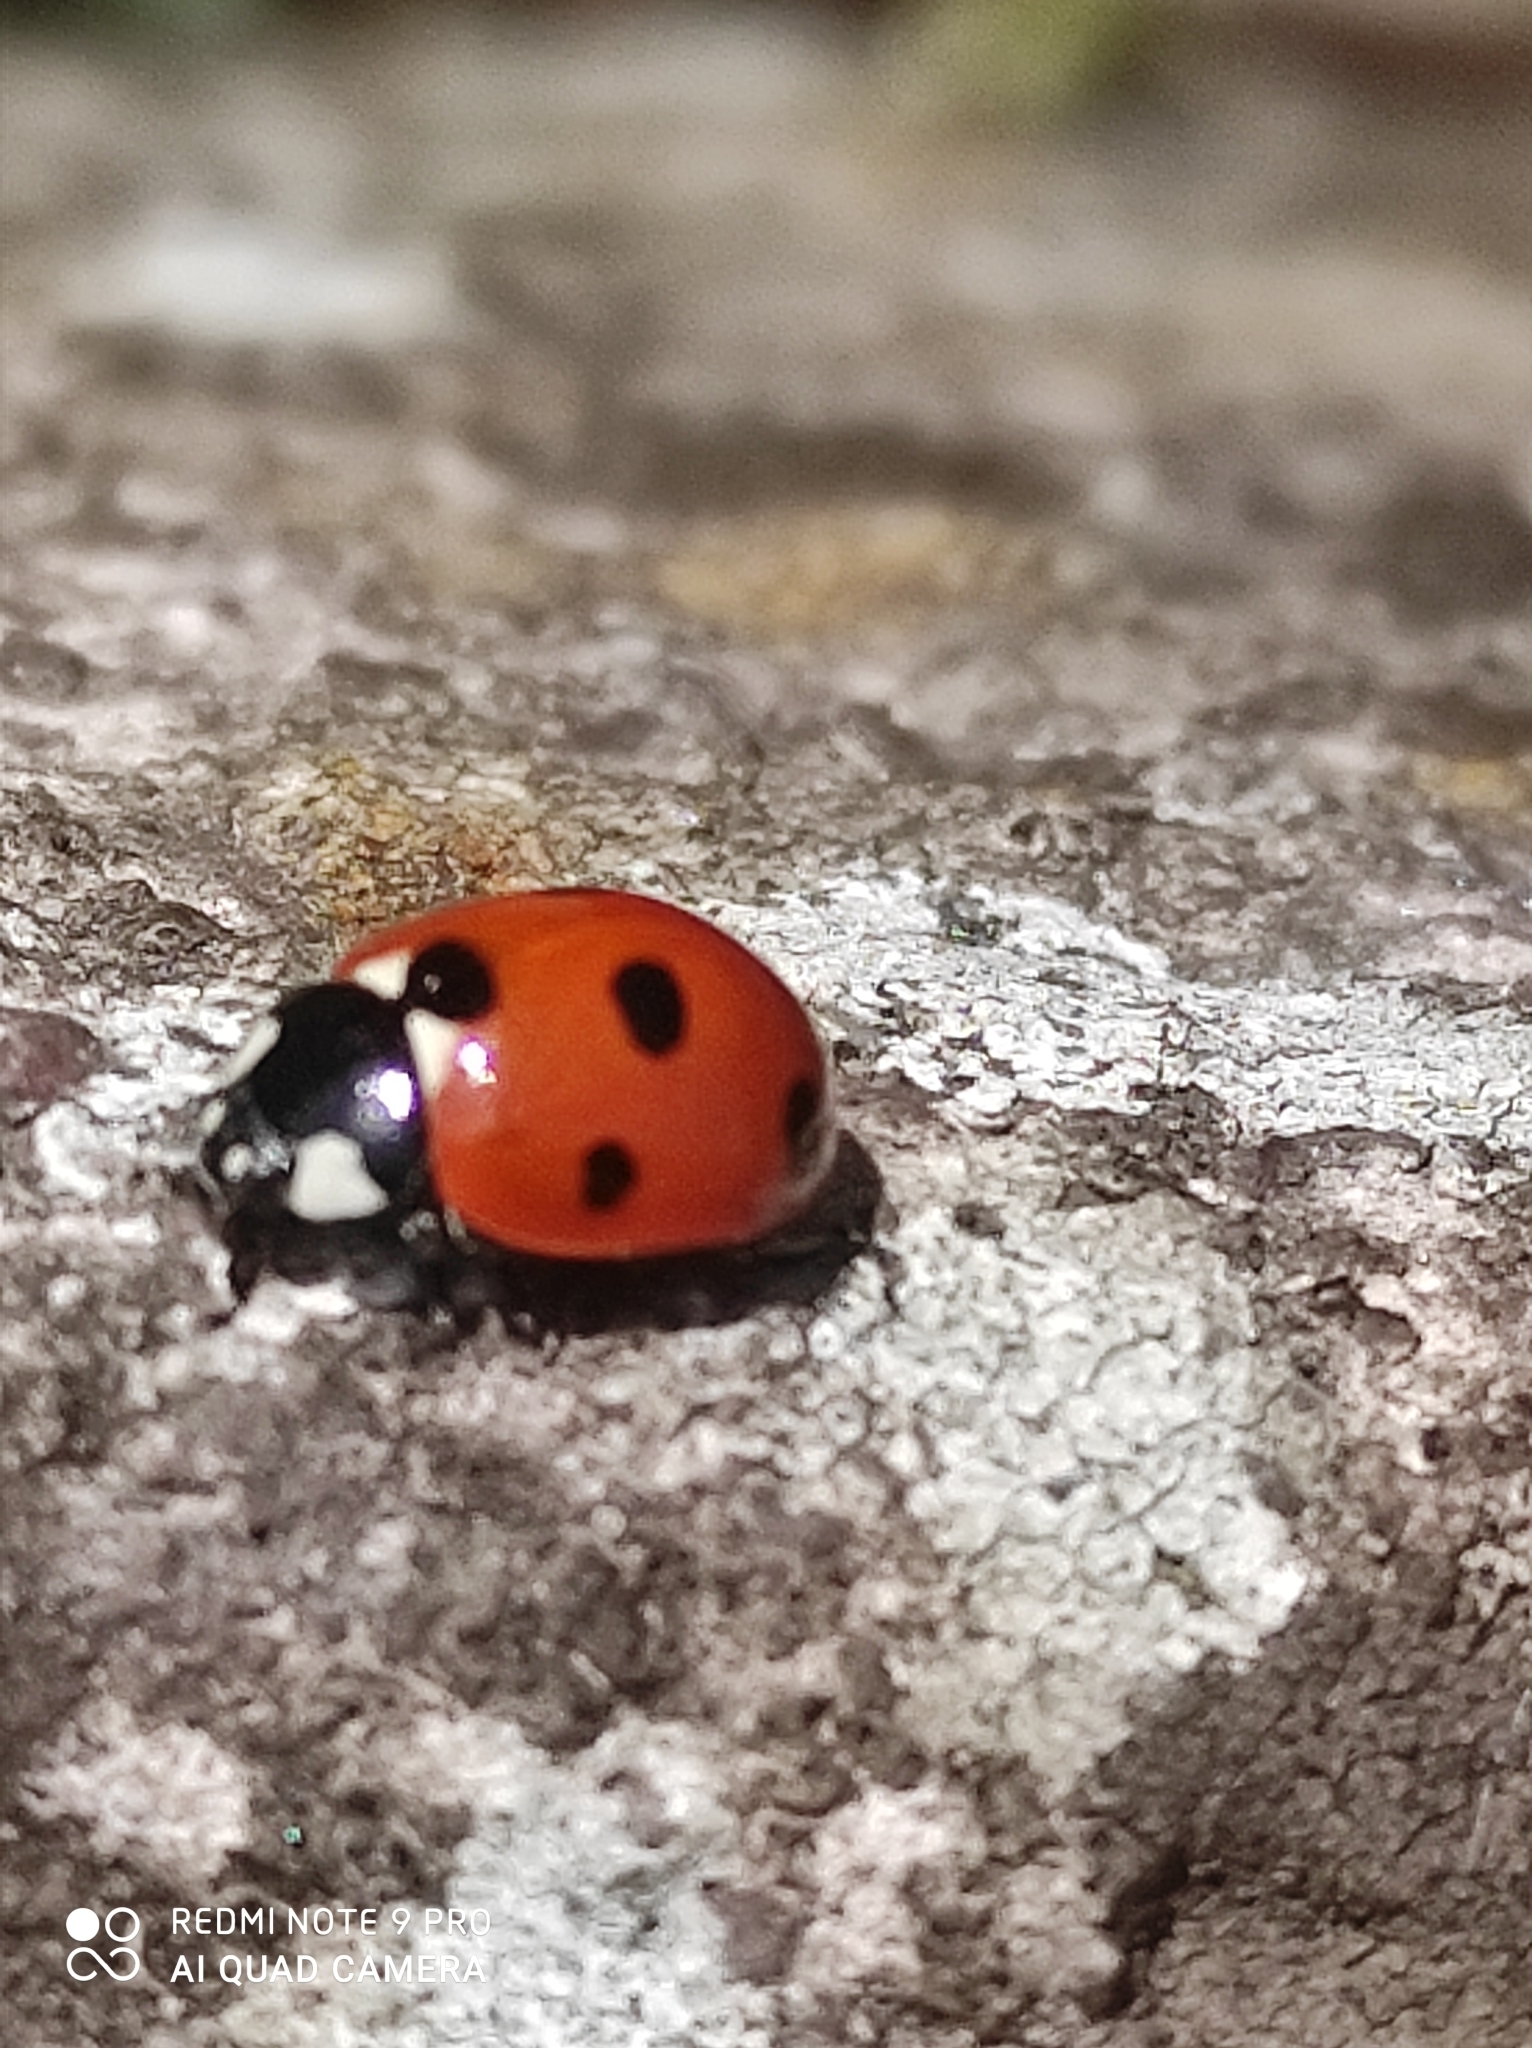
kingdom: Animalia
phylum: Arthropoda
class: Insecta
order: Coleoptera
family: Coccinellidae
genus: Coccinella
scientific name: Coccinella septempunctata
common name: Sevenspotted lady beetle
